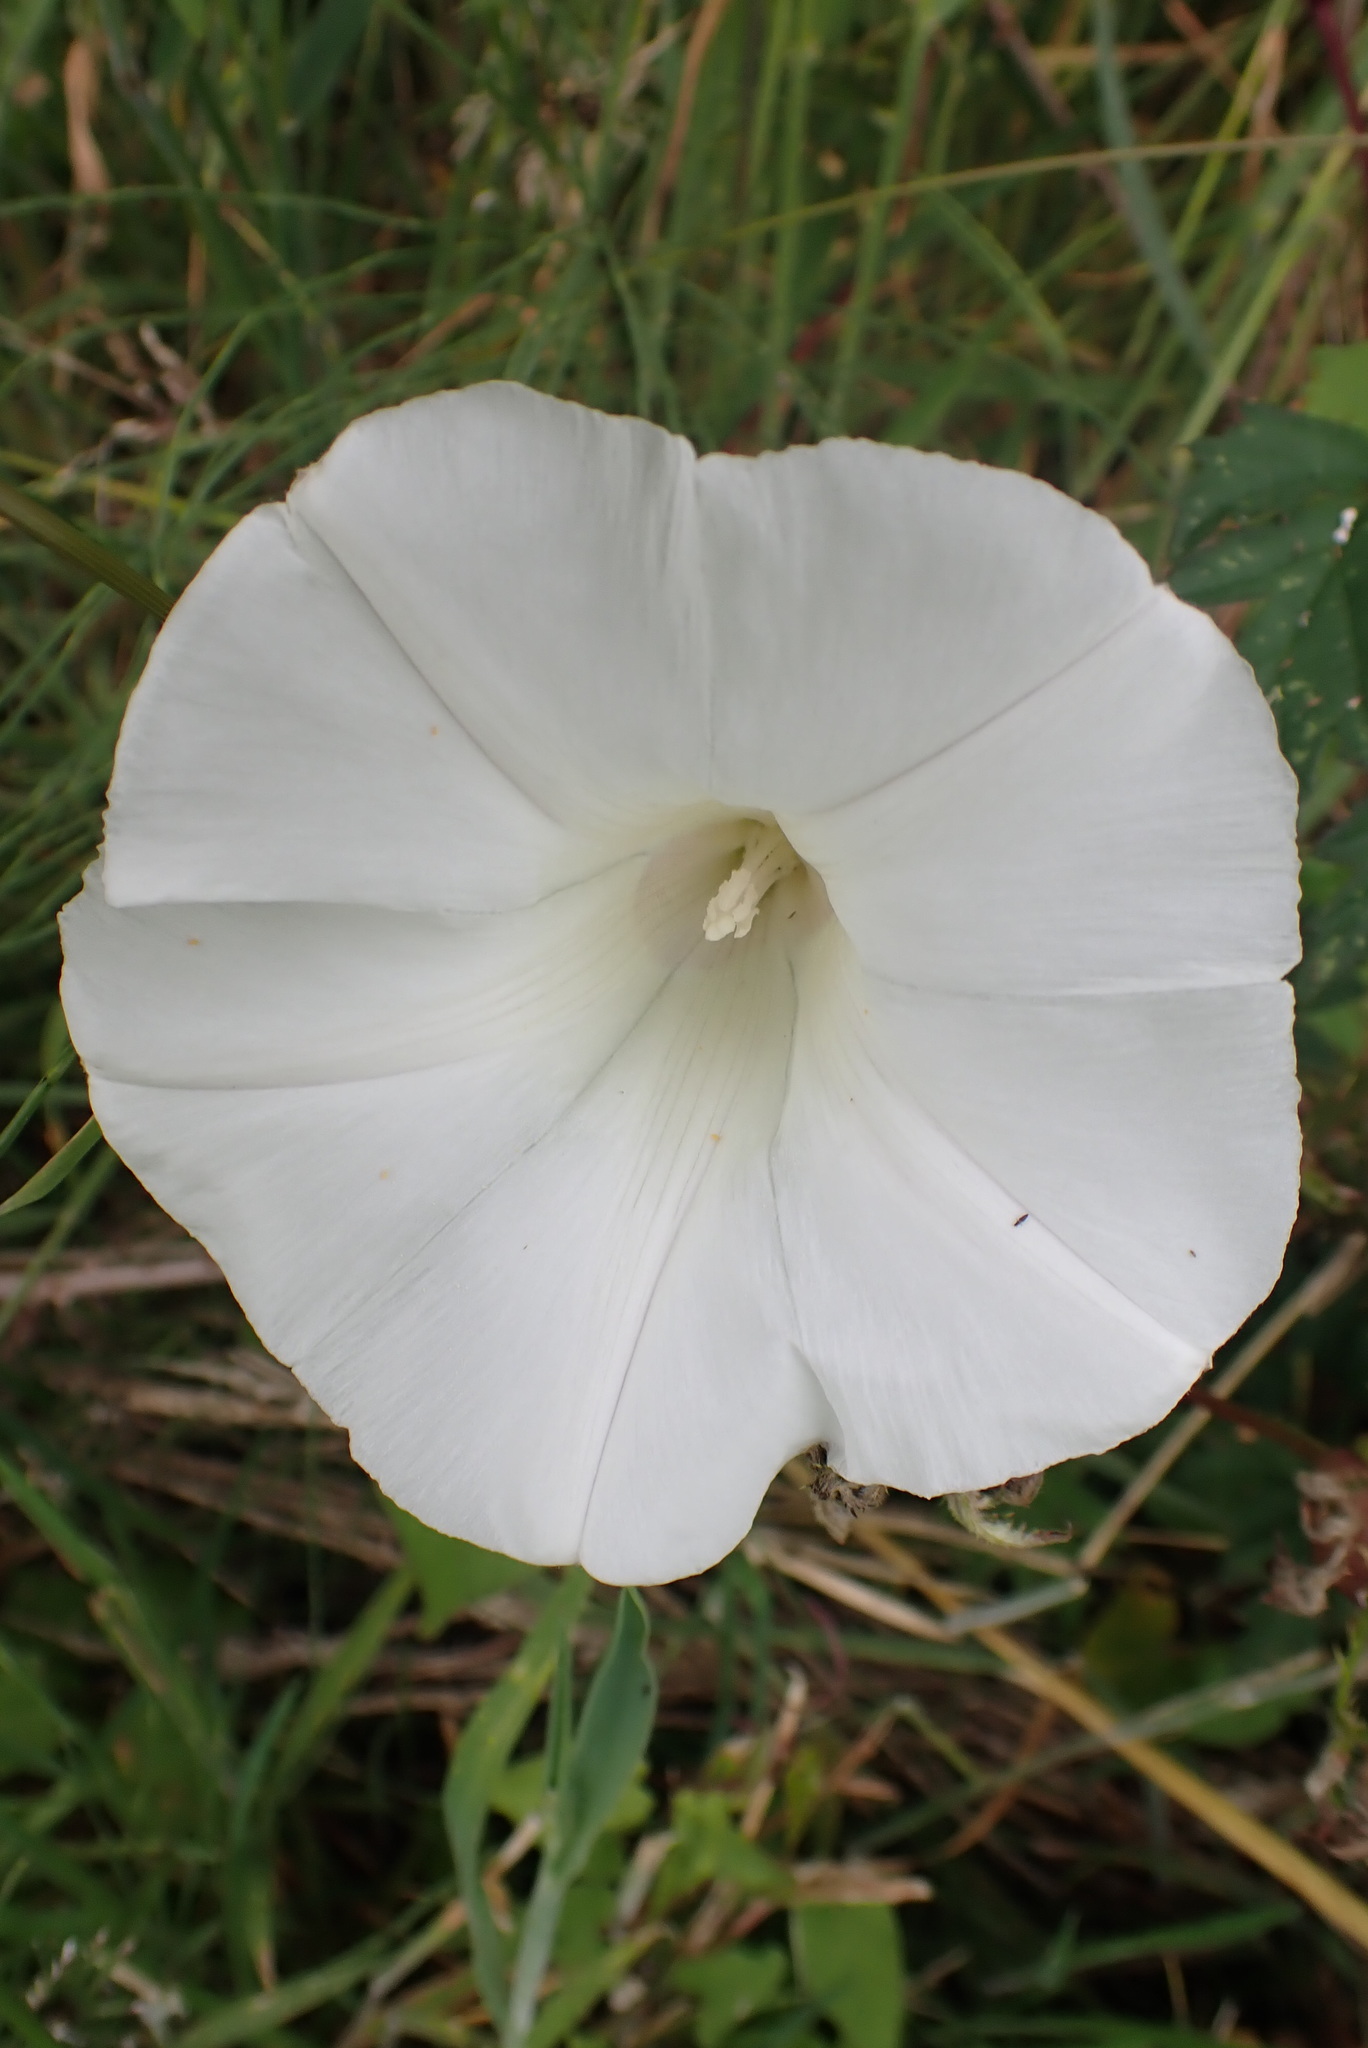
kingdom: Plantae
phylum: Tracheophyta
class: Magnoliopsida
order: Solanales
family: Convolvulaceae
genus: Calystegia
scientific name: Calystegia silvatica
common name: Large bindweed
